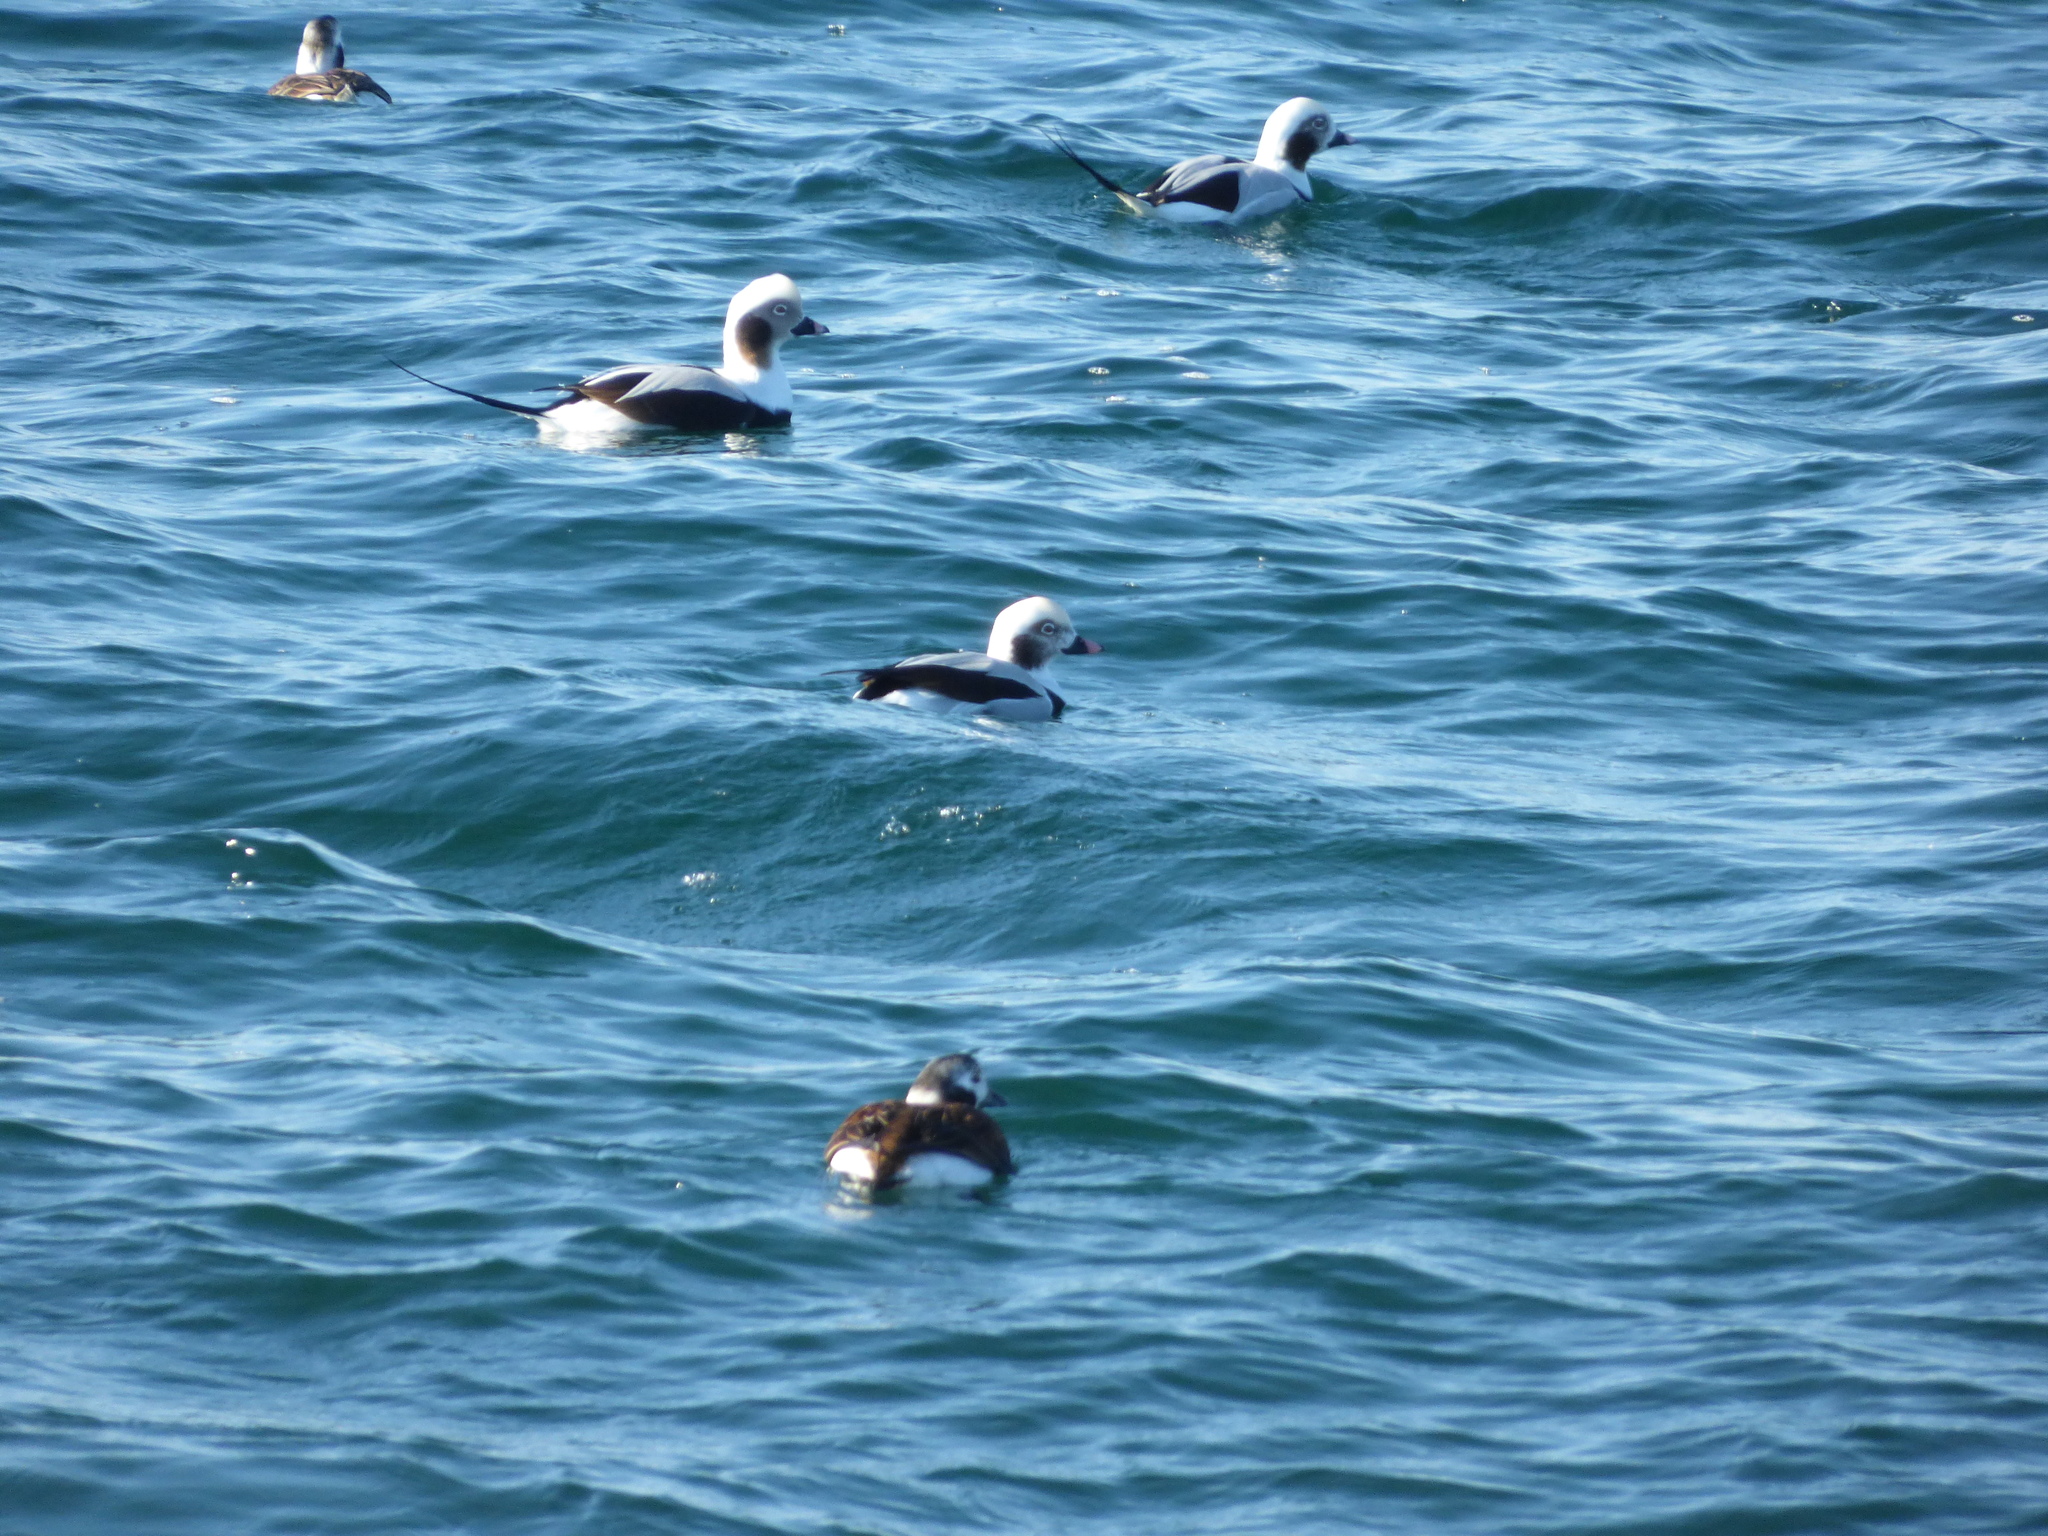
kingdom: Animalia
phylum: Chordata
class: Aves
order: Anseriformes
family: Anatidae
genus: Clangula
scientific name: Clangula hyemalis
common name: Long-tailed duck
